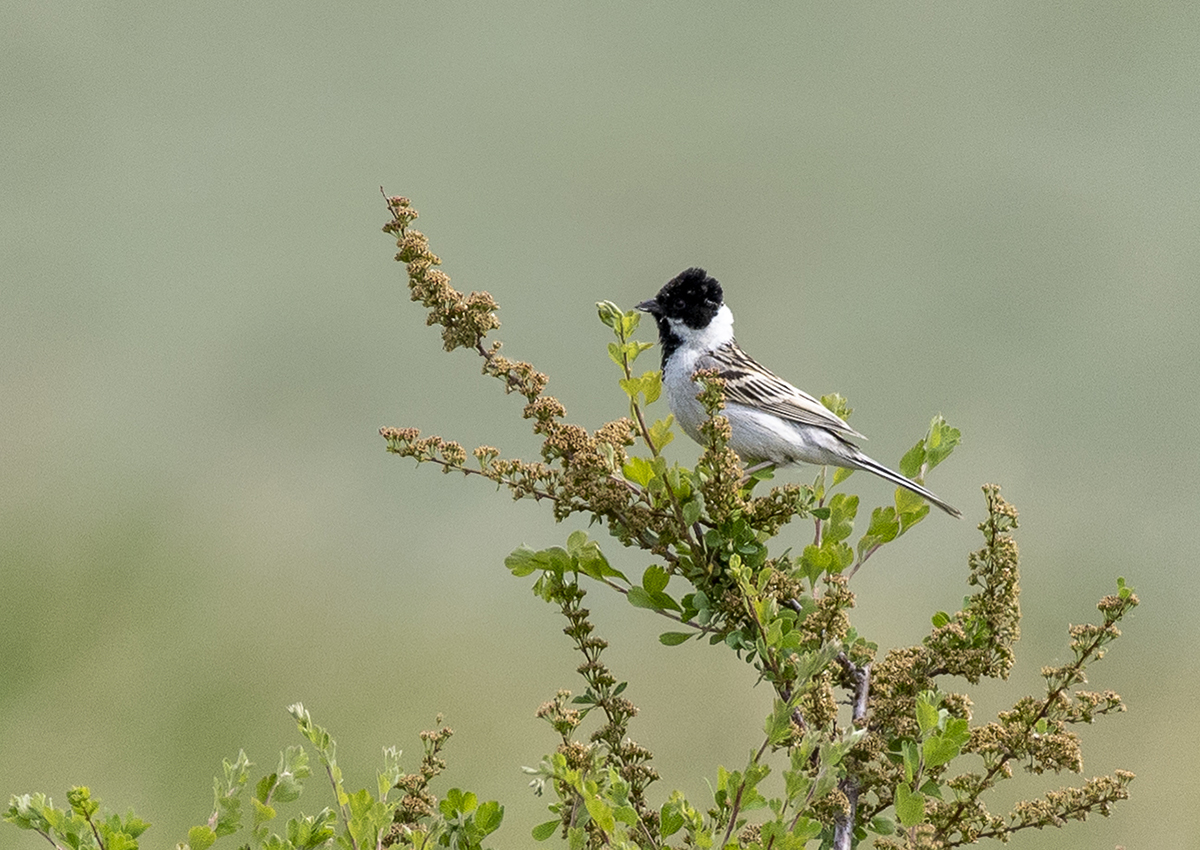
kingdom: Animalia
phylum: Chordata
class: Aves
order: Passeriformes
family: Emberizidae
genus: Emberiza
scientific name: Emberiza pallasi
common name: Pallas's reed bunting
